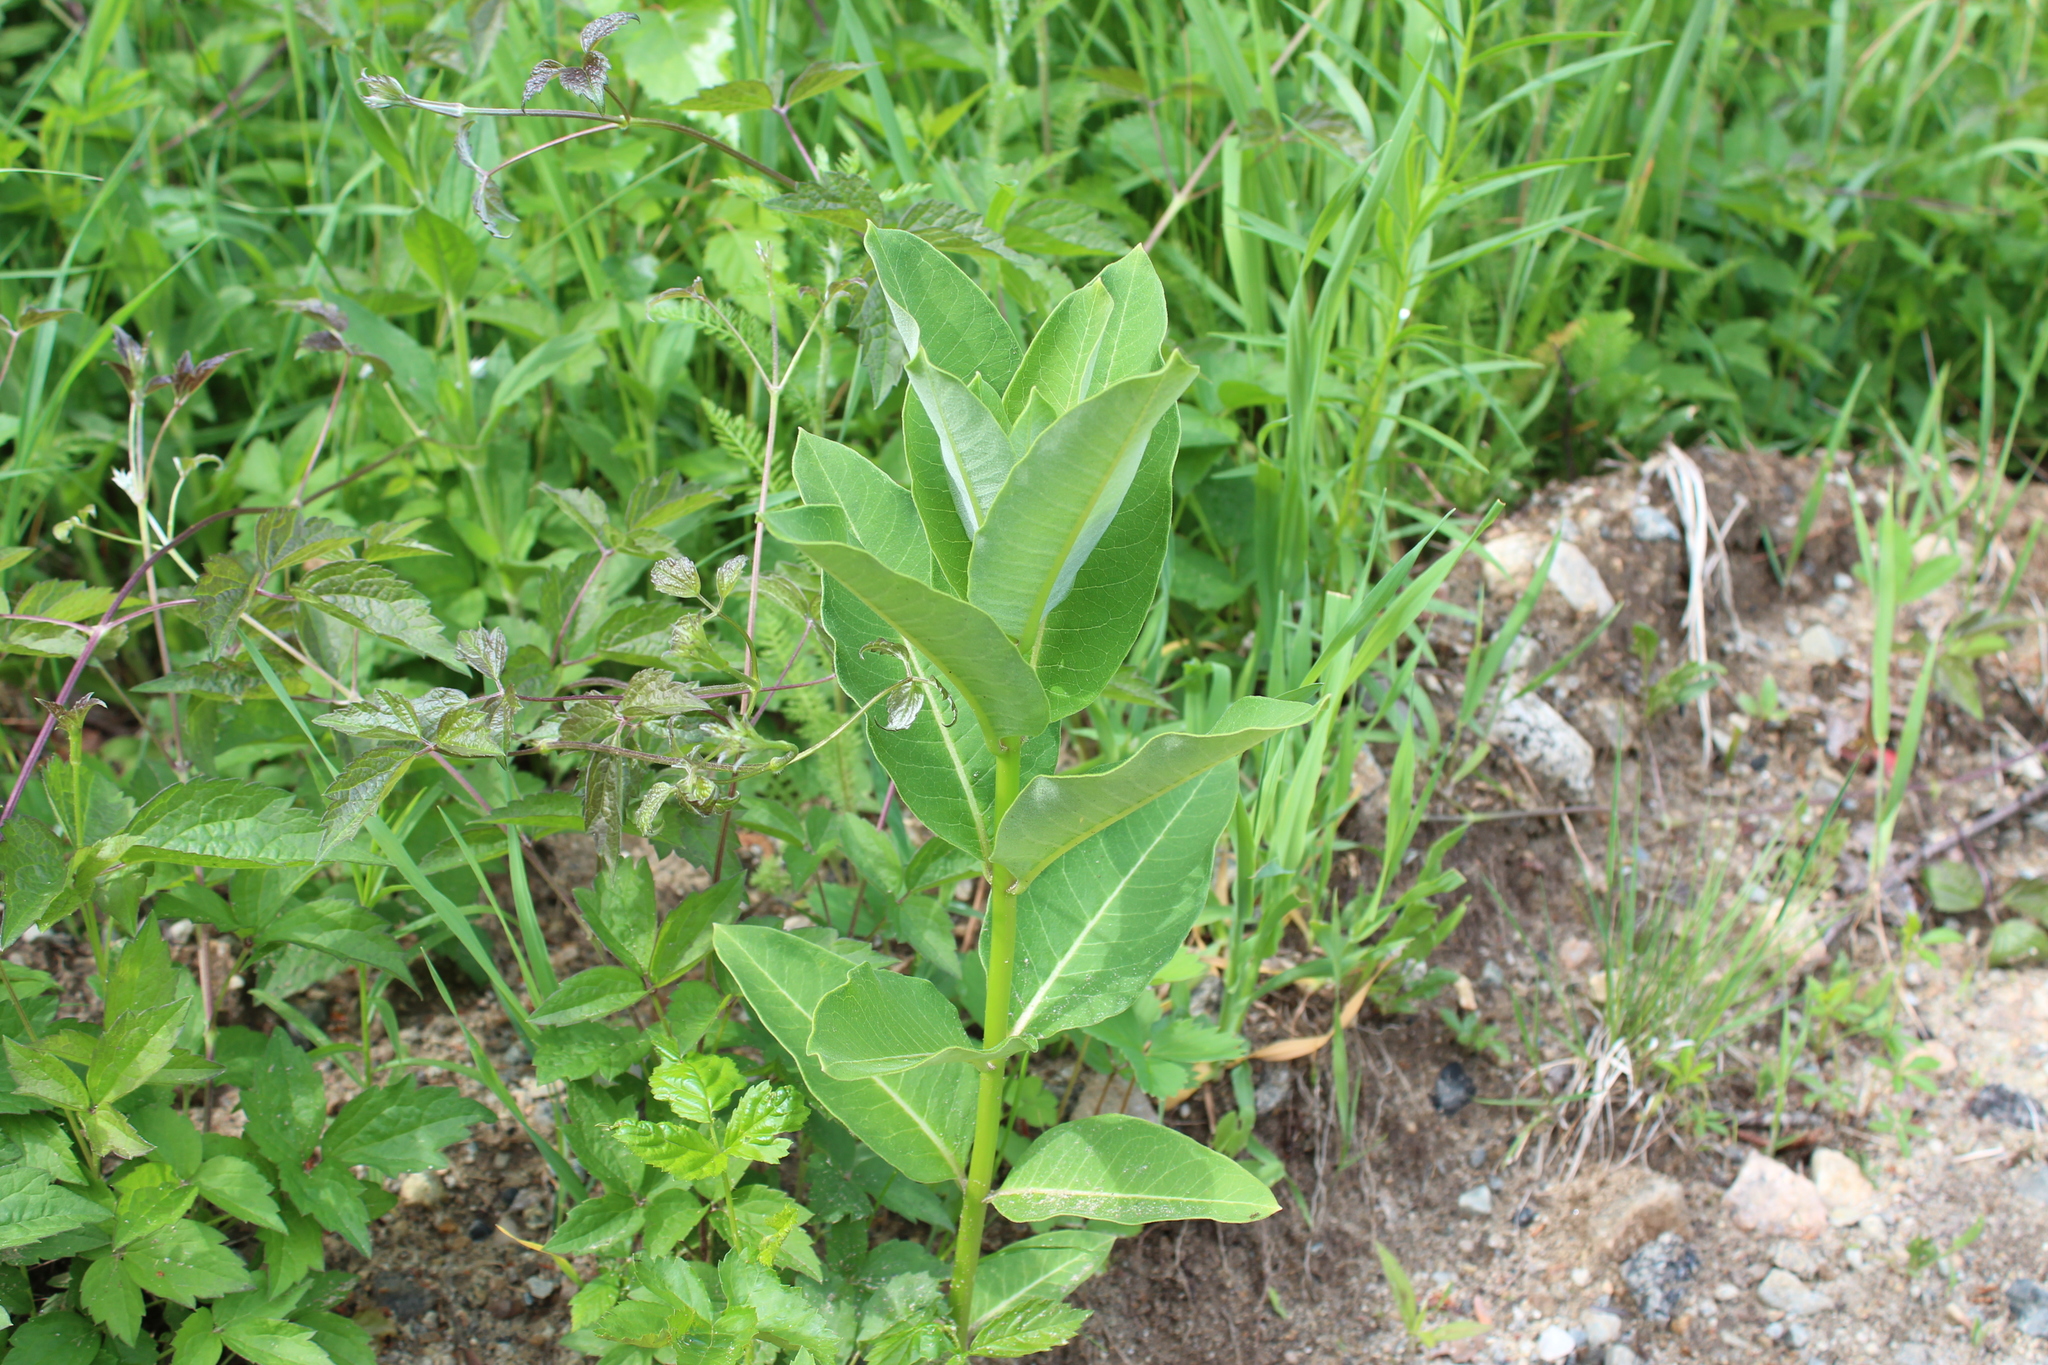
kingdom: Plantae
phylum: Tracheophyta
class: Magnoliopsida
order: Gentianales
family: Apocynaceae
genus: Asclepias
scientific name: Asclepias syriaca
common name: Common milkweed
